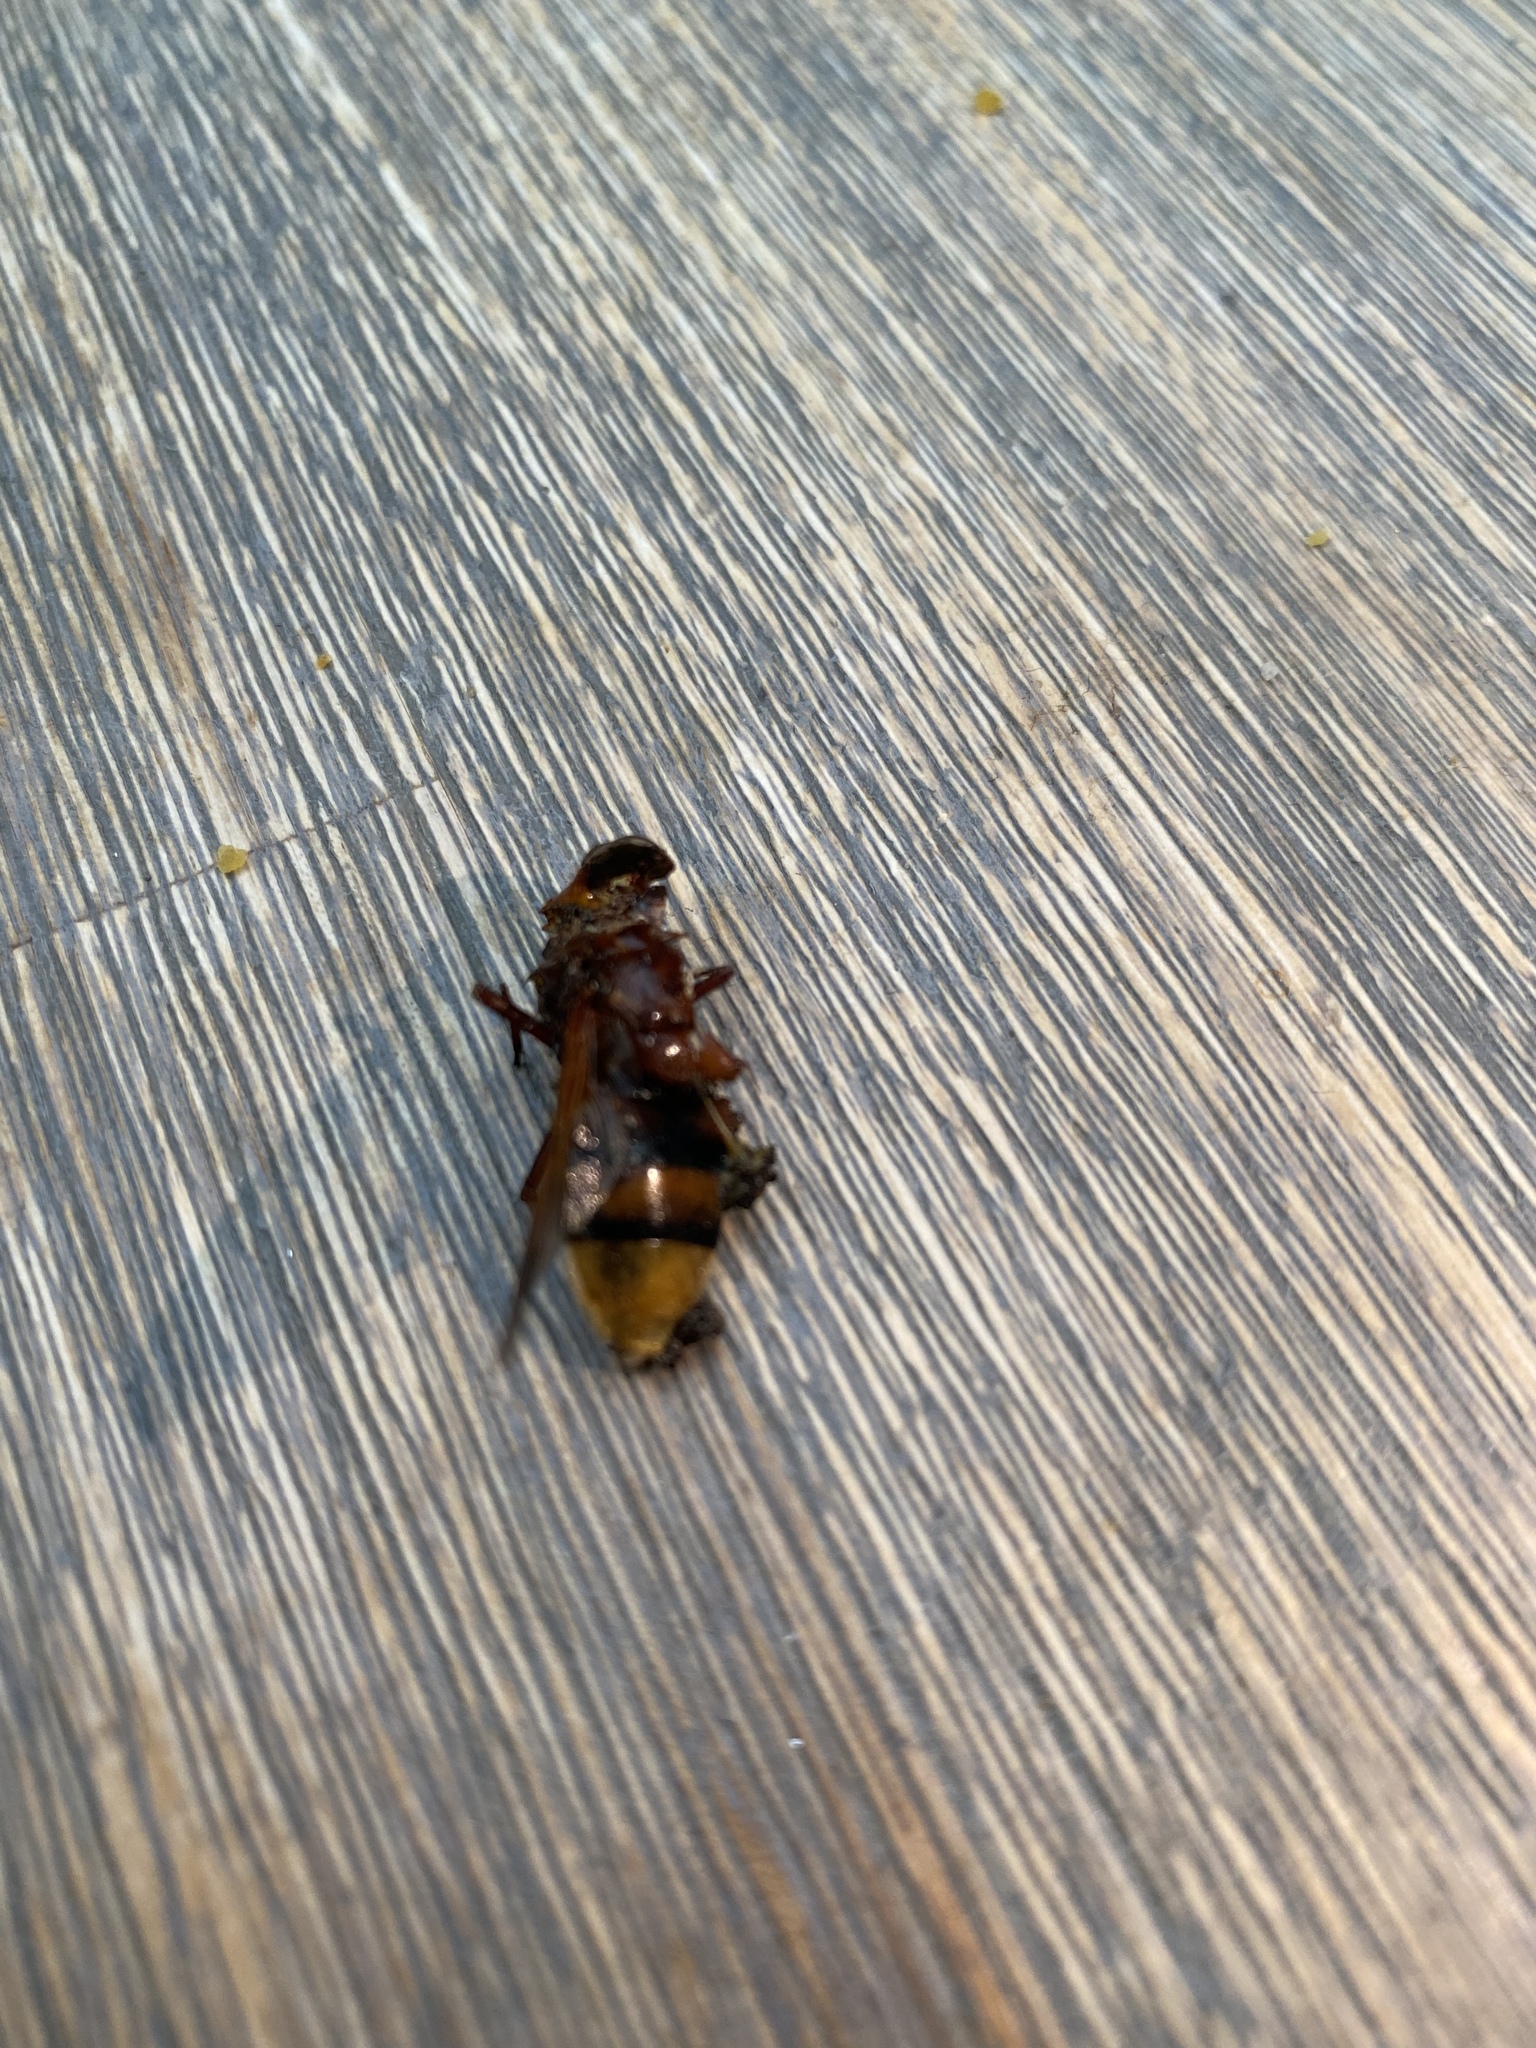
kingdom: Animalia
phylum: Arthropoda
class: Insecta
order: Diptera
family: Syrphidae
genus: Volucella
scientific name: Volucella zonaria
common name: Hornet hoverfly
